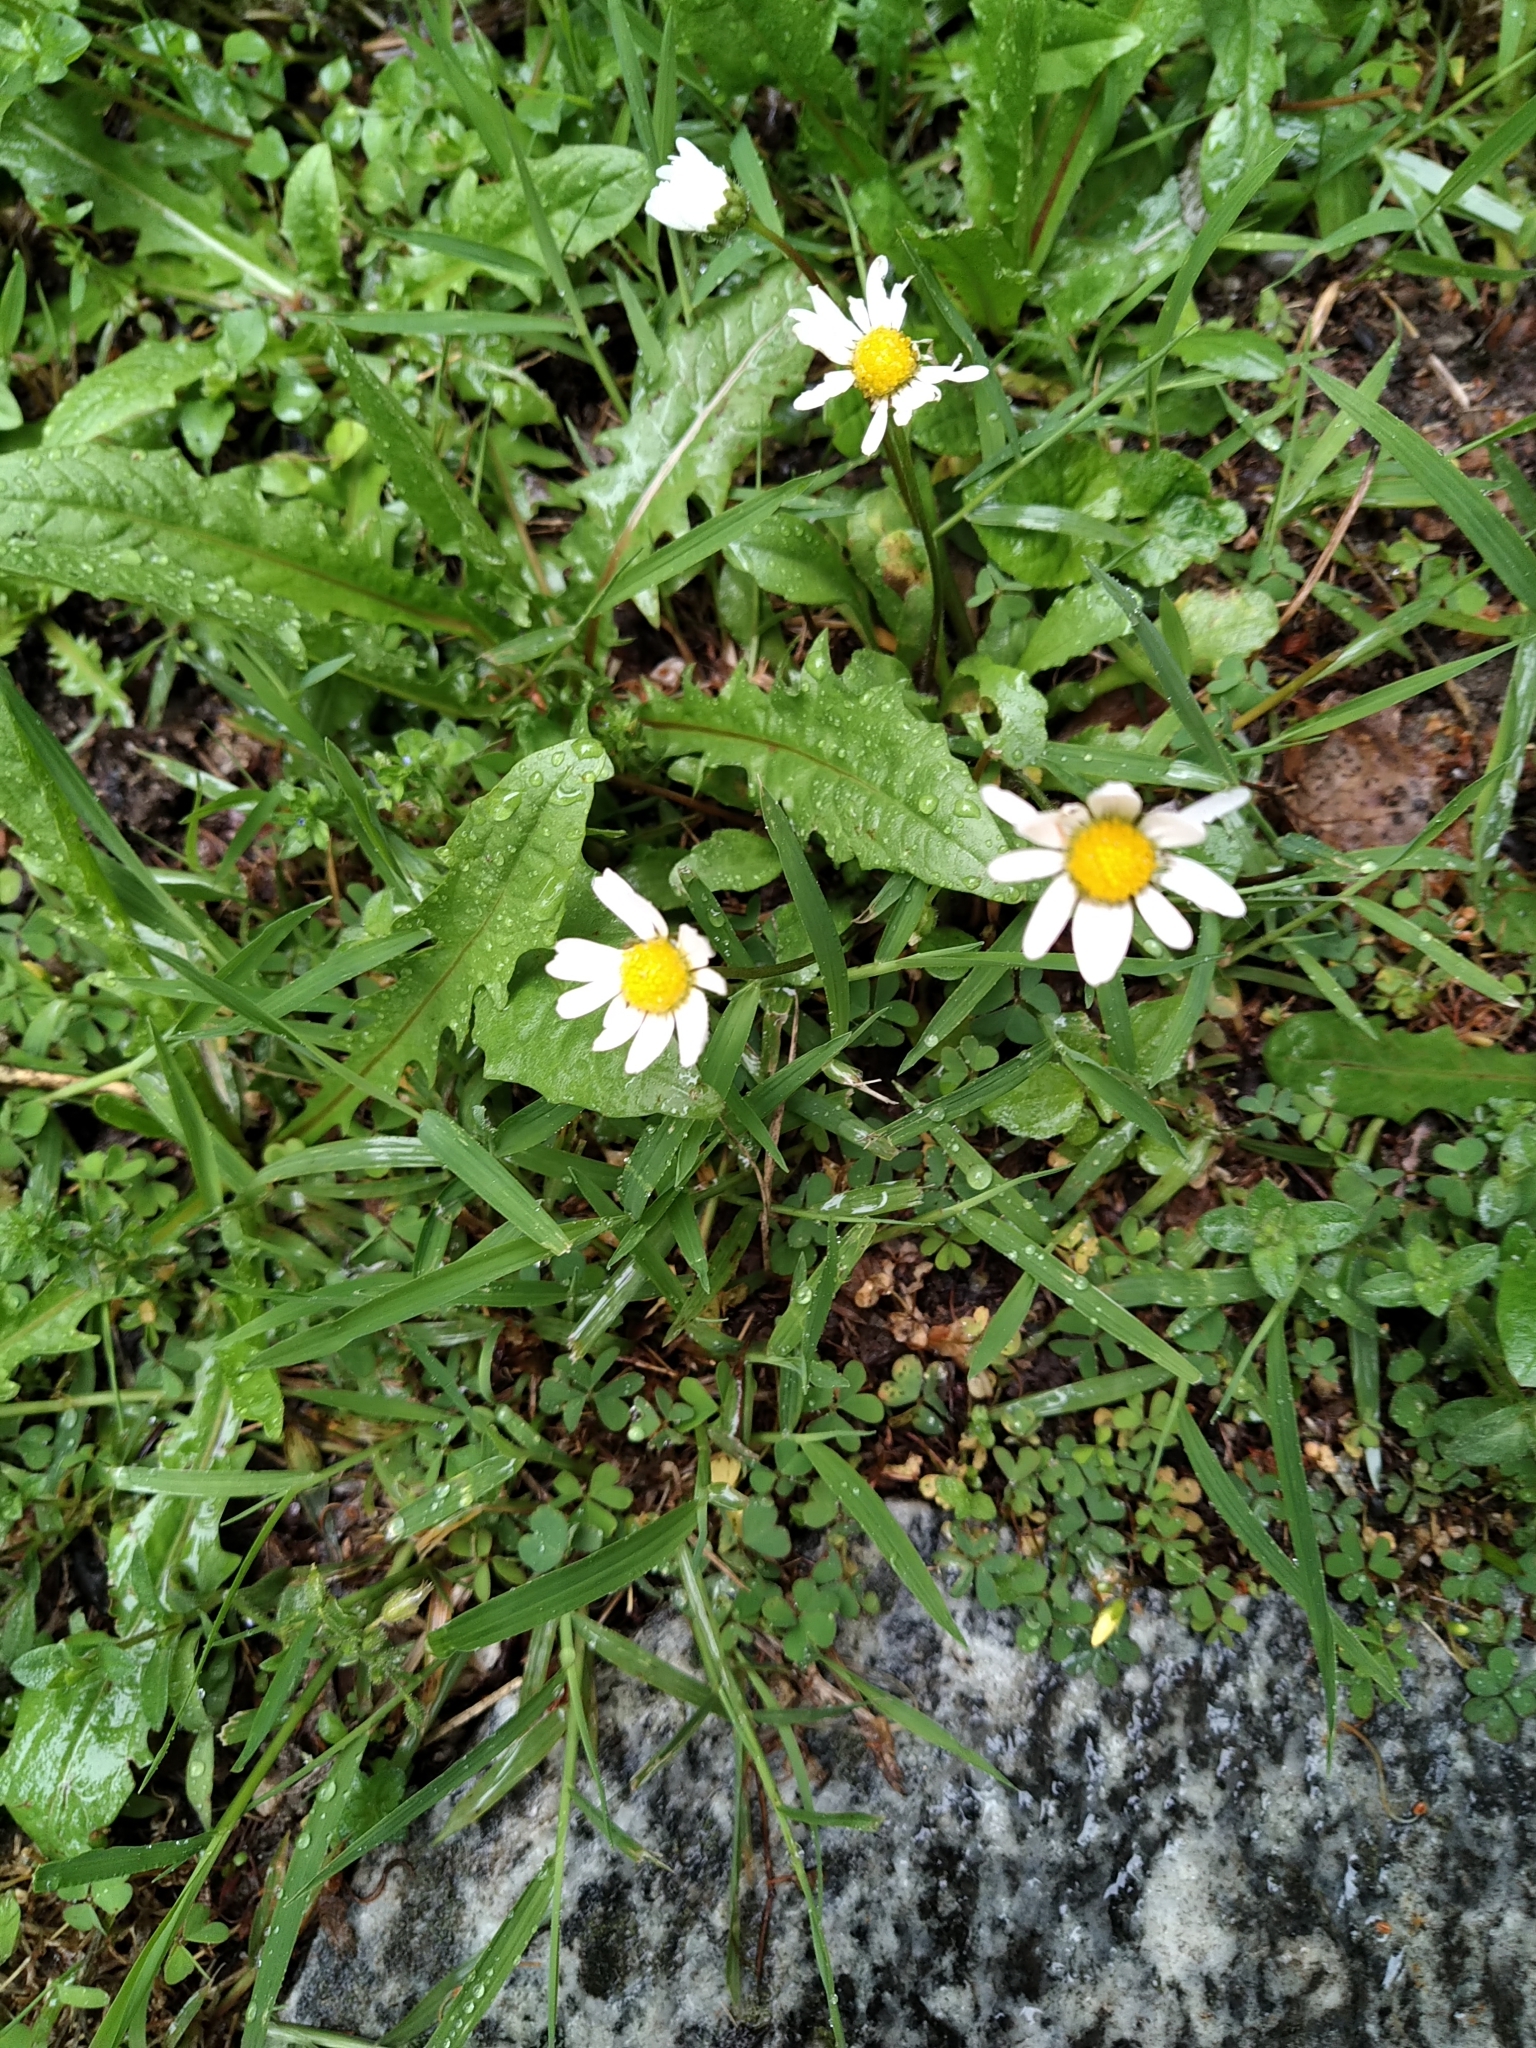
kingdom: Plantae
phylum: Tracheophyta
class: Magnoliopsida
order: Asterales
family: Asteraceae
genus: Bellis
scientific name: Bellis perennis
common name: Lawndaisy
